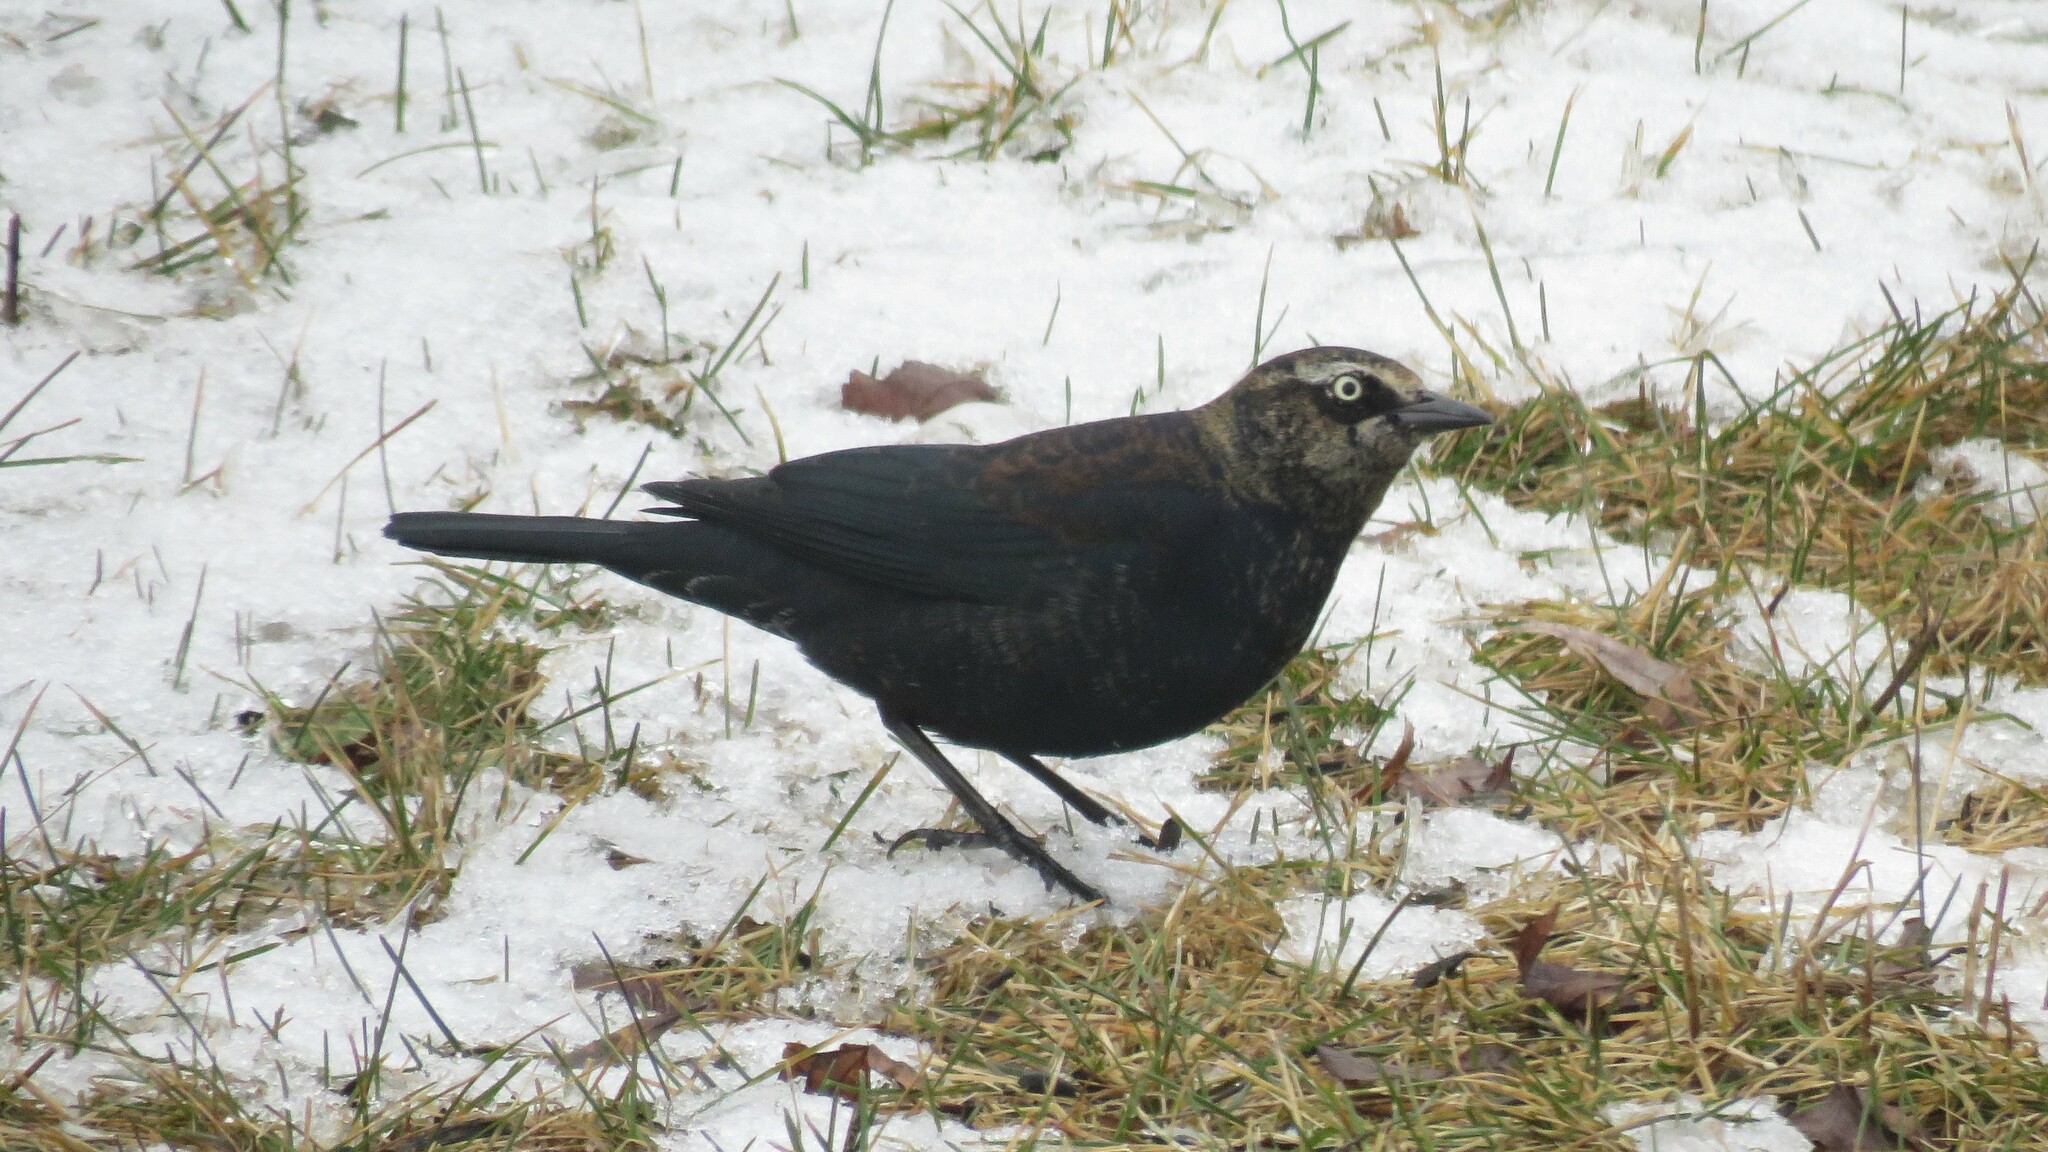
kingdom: Animalia
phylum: Chordata
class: Aves
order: Passeriformes
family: Icteridae
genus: Euphagus
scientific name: Euphagus carolinus
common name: Rusty blackbird
